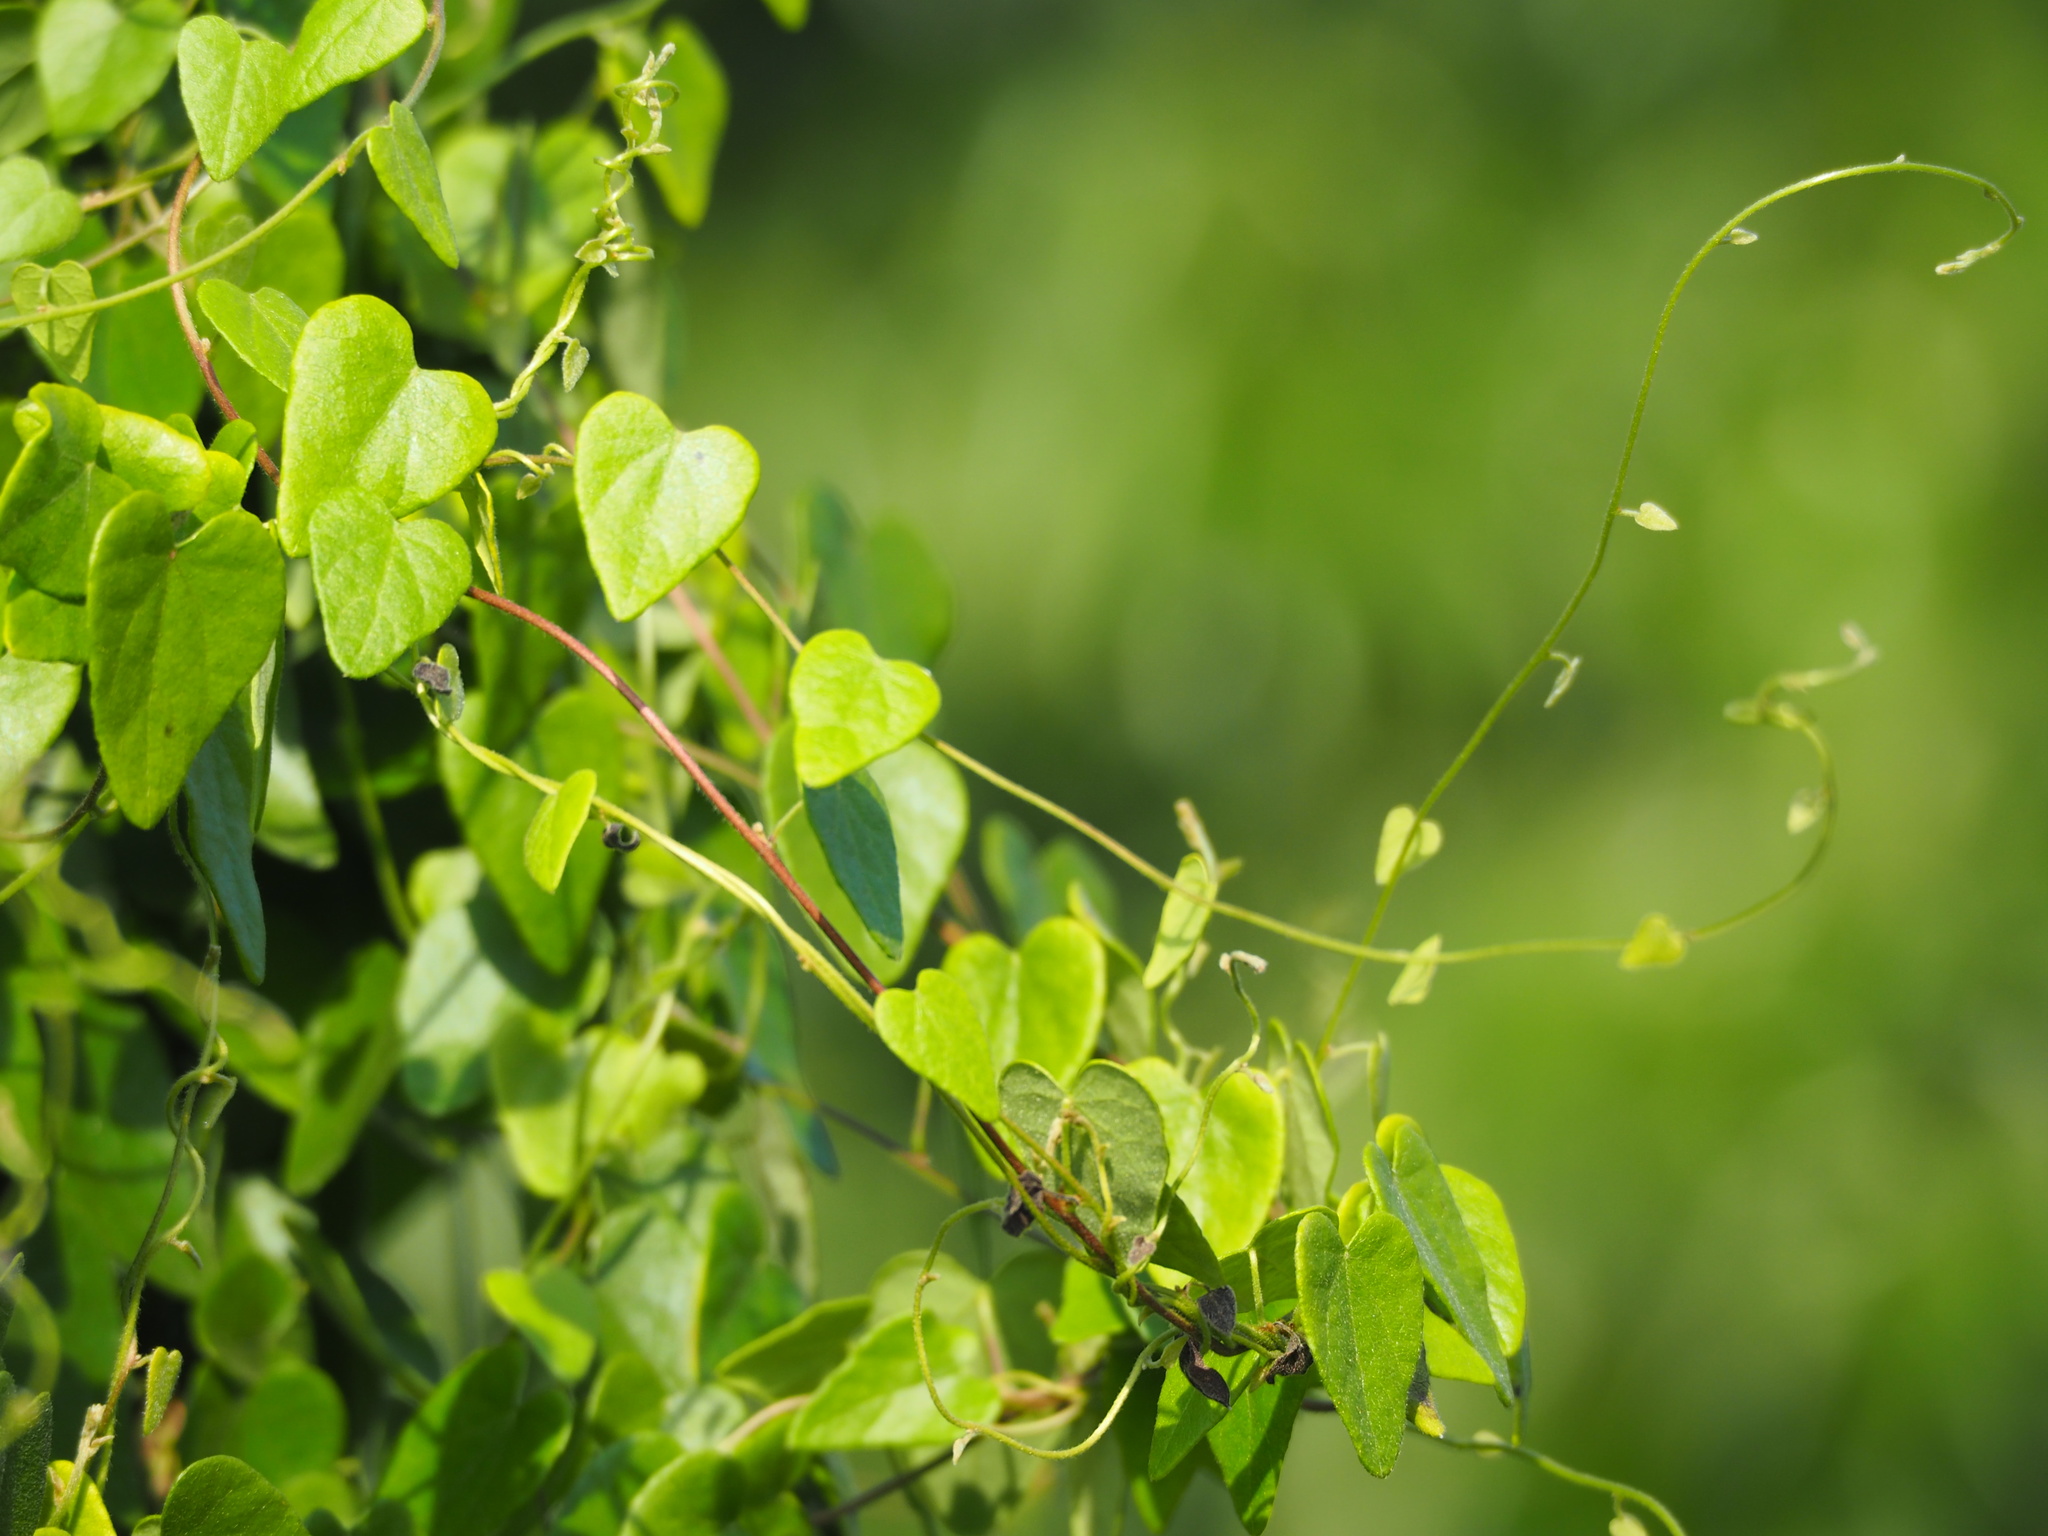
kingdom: Plantae
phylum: Tracheophyta
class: Magnoliopsida
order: Ranunculales
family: Menispermaceae
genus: Cyclea
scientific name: Cyclea gracillima
